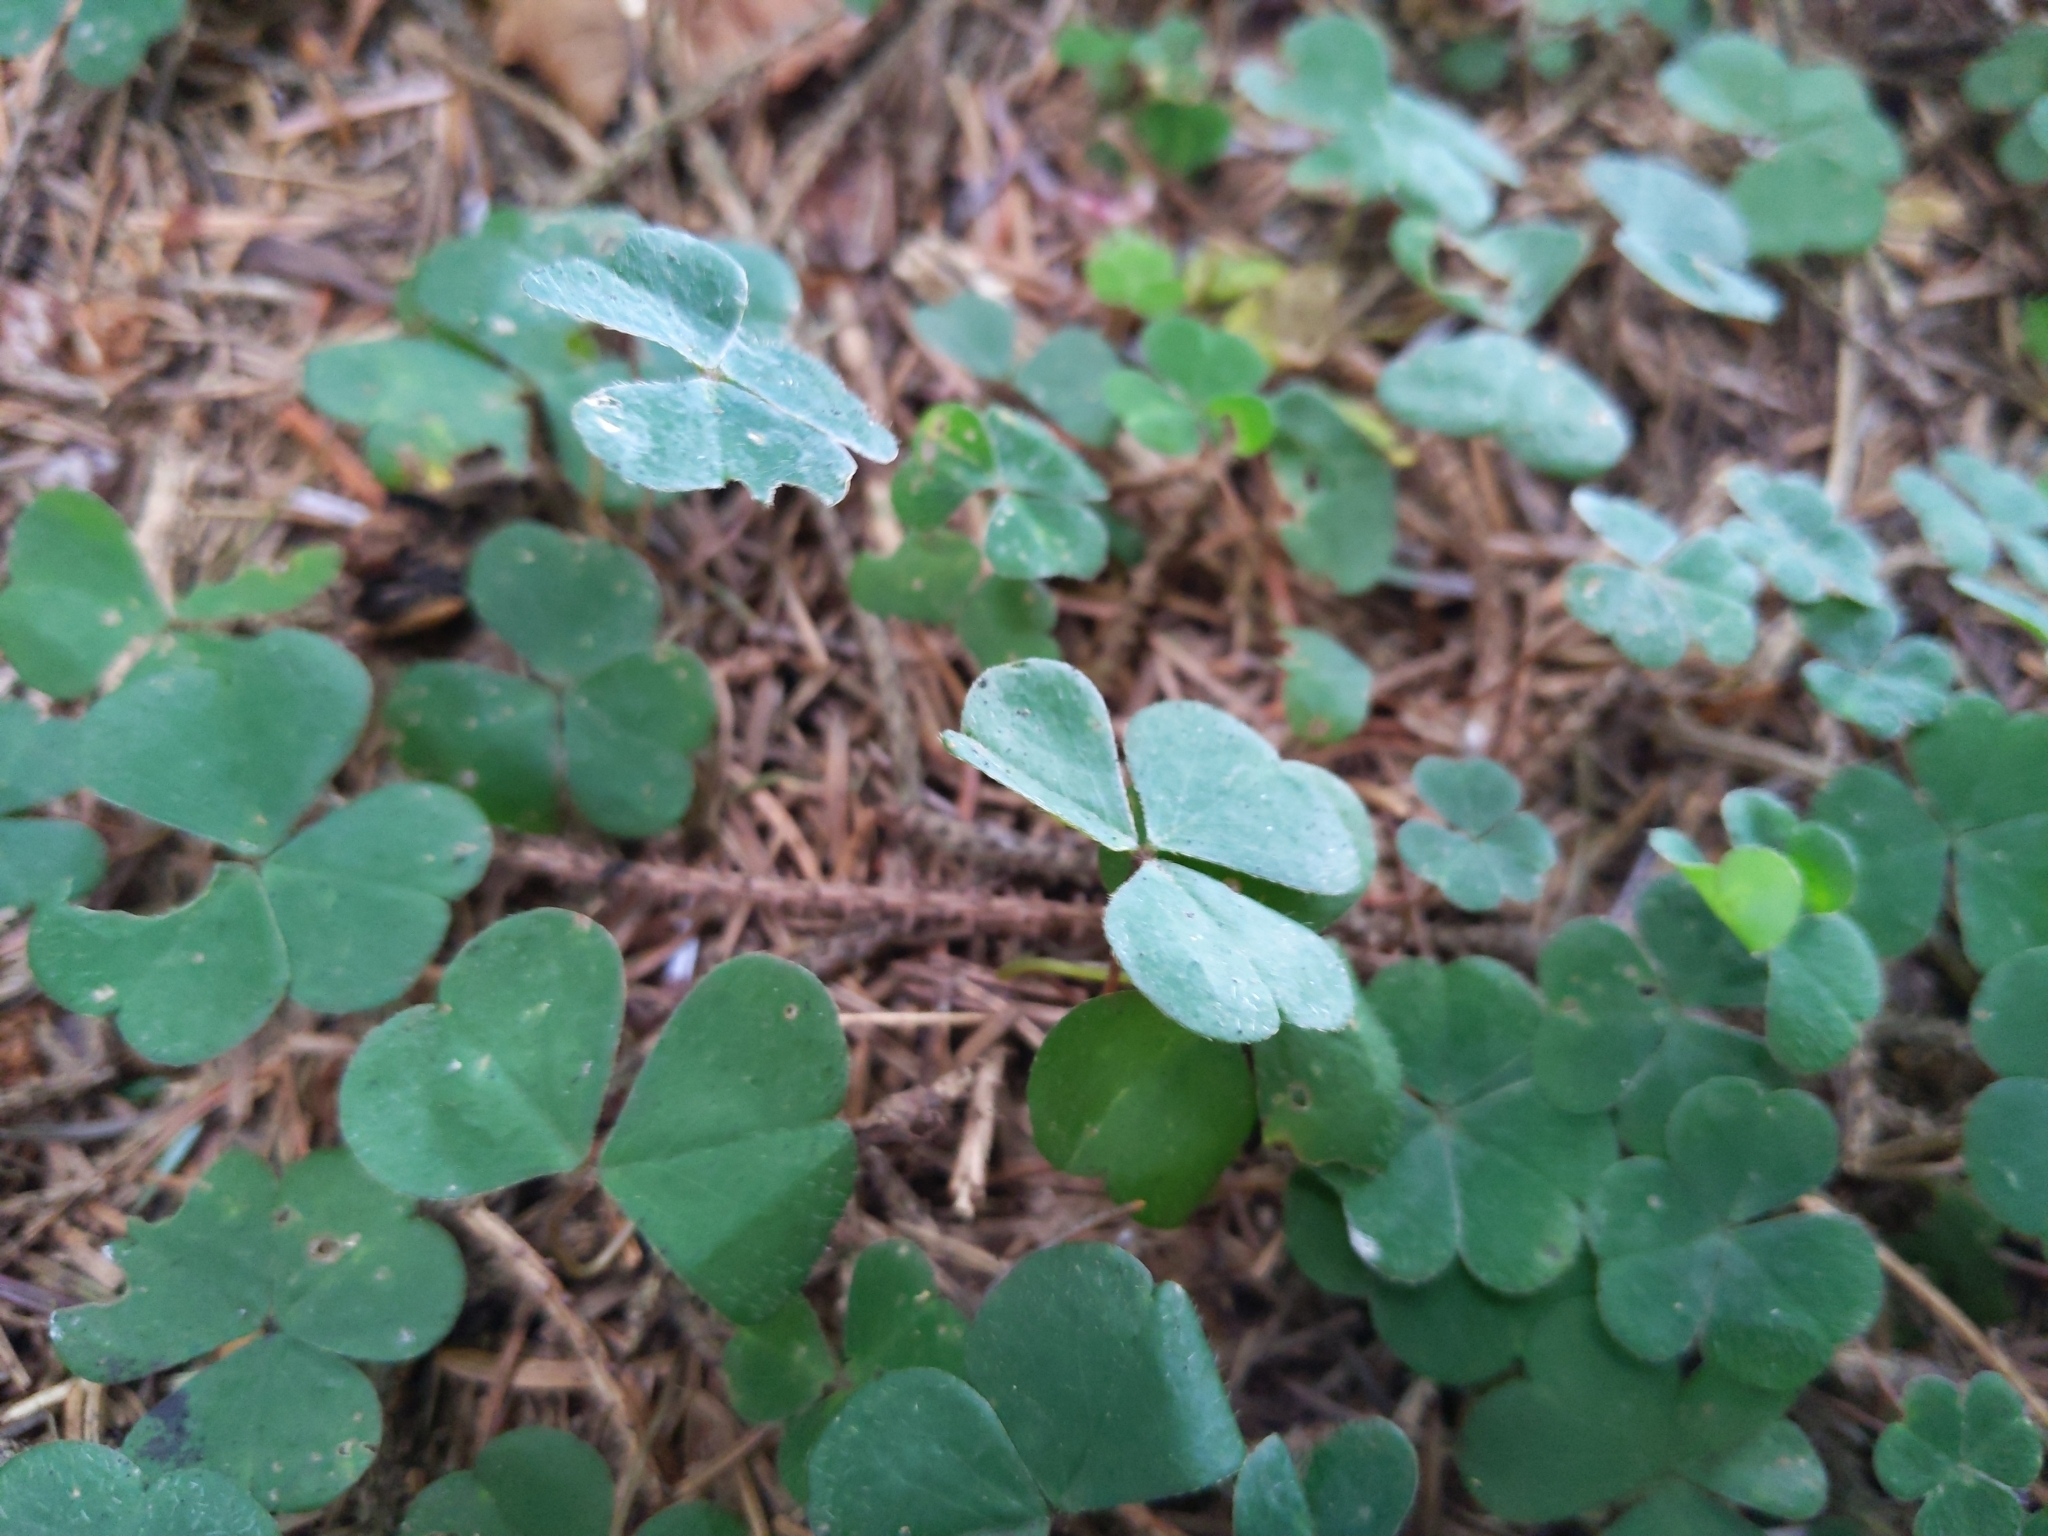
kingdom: Plantae
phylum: Tracheophyta
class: Magnoliopsida
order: Oxalidales
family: Oxalidaceae
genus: Oxalis
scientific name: Oxalis acetosella
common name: Wood-sorrel
